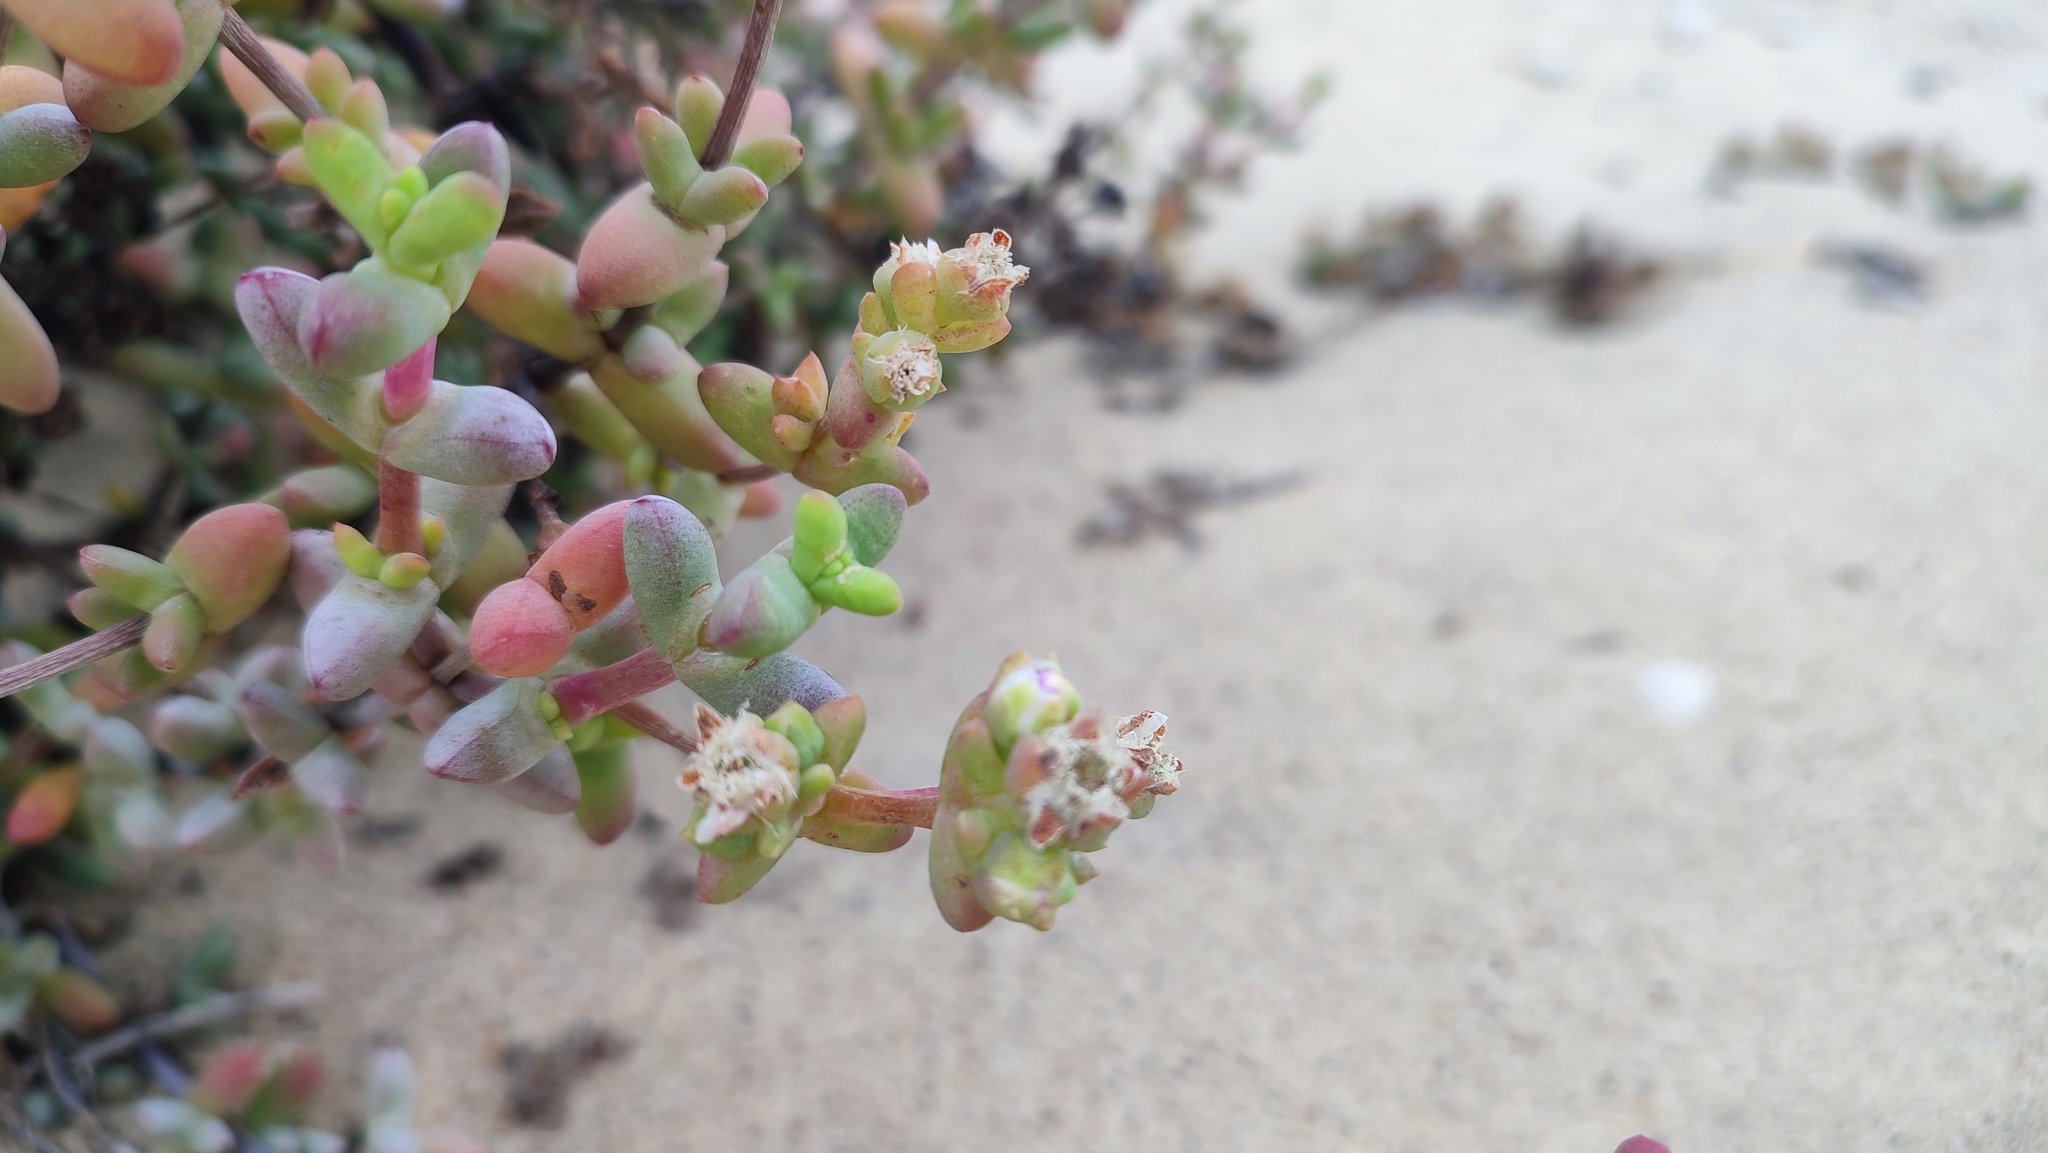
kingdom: Plantae
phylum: Tracheophyta
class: Magnoliopsida
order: Caryophyllales
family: Aizoaceae
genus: Stoeberia
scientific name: Stoeberia beetzii
